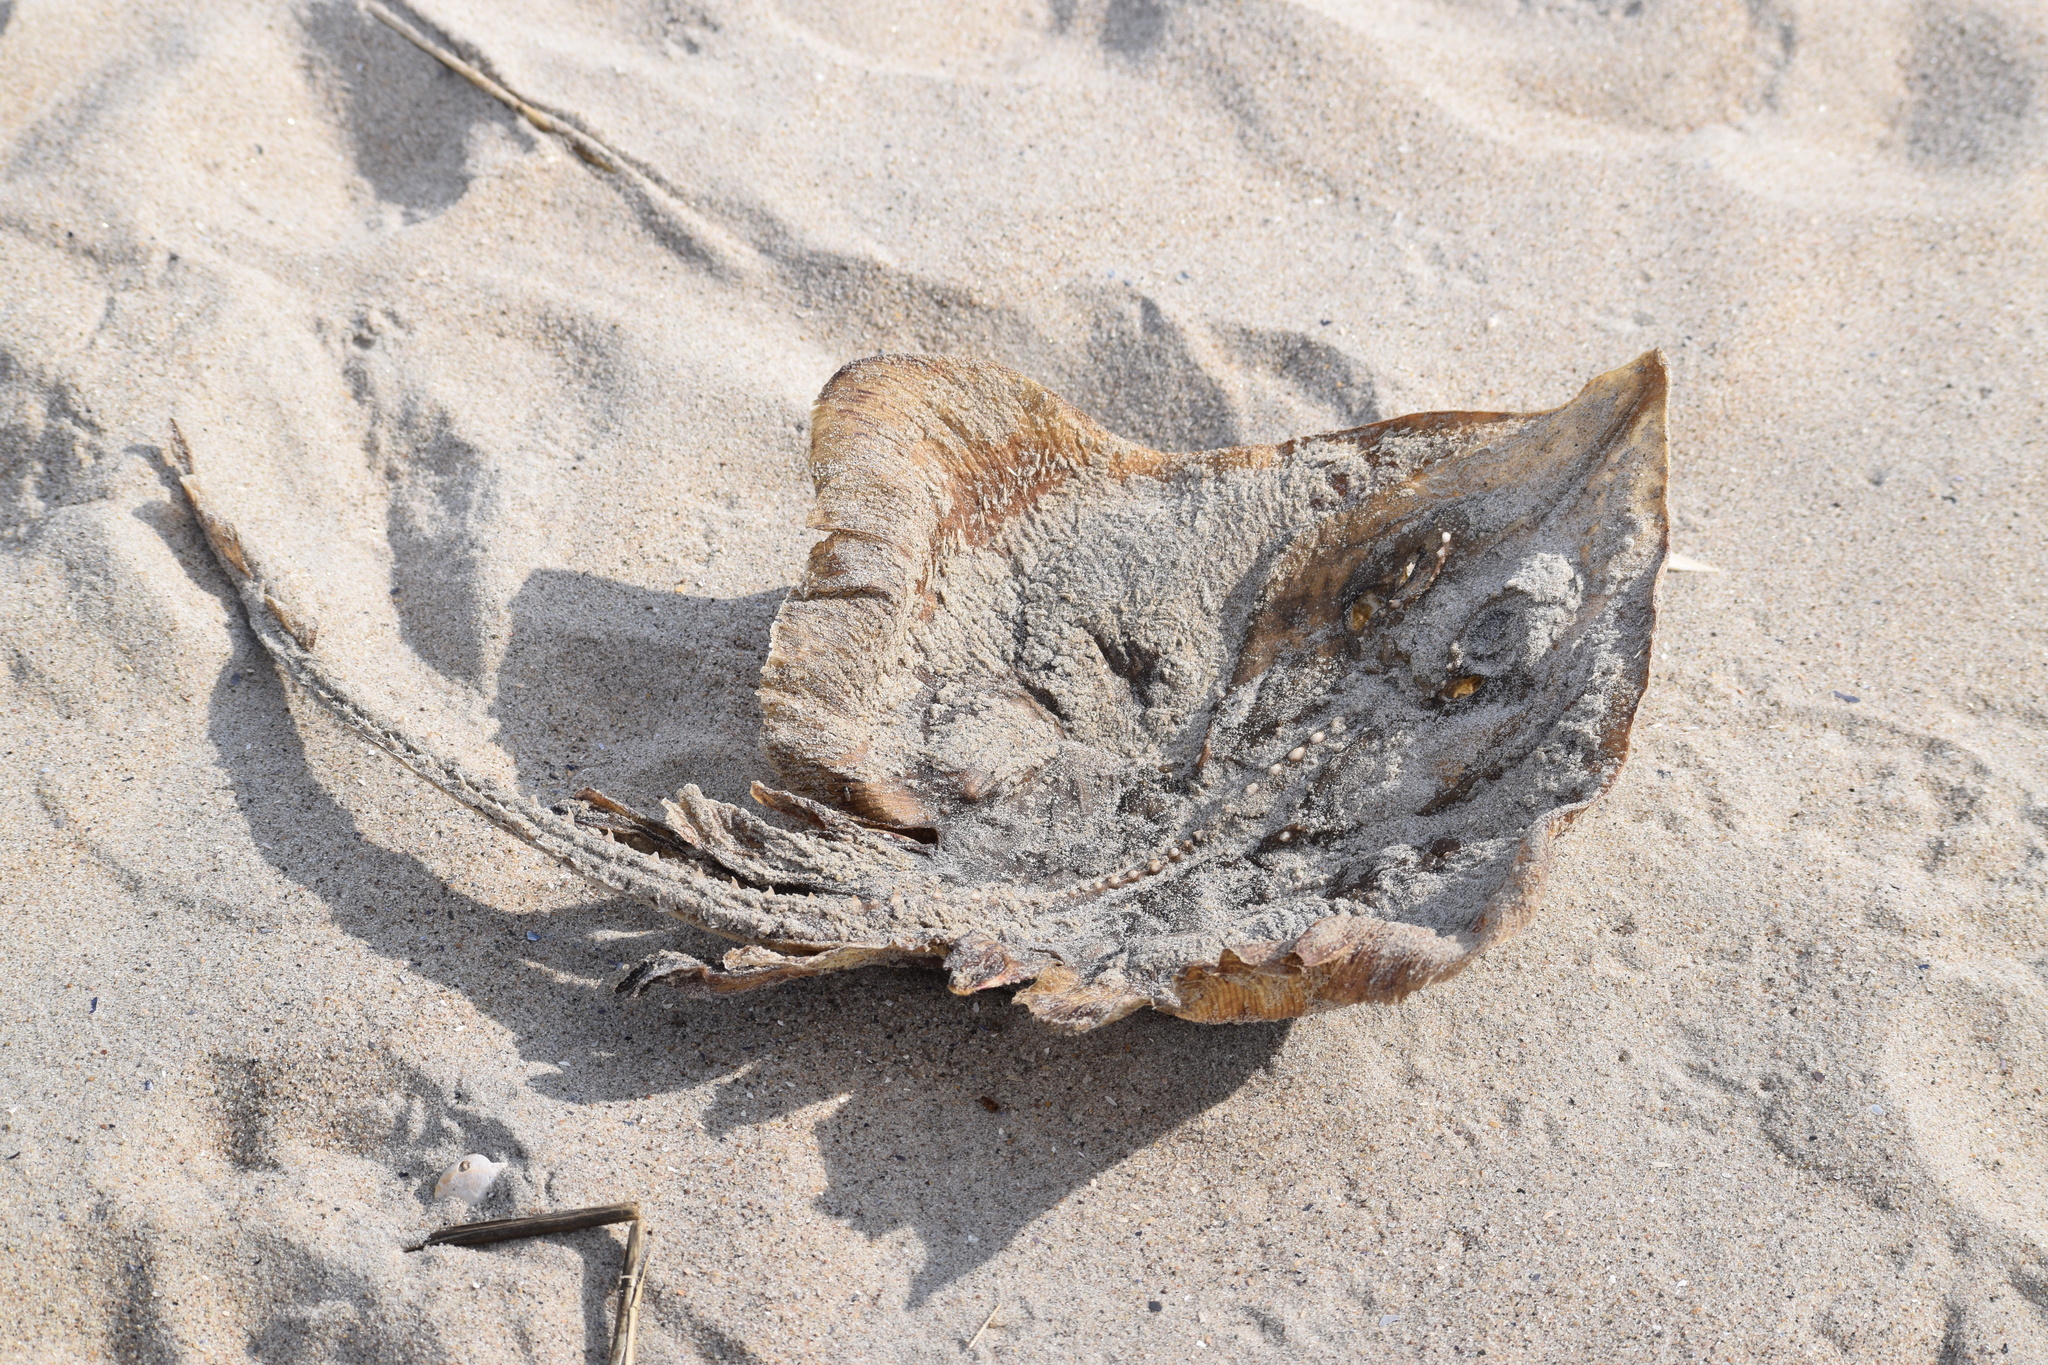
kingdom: Animalia
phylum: Chordata
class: Elasmobranchii
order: Rajiformes
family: Rajidae
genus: Raja
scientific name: Raja eglanteria
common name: Clearnose skate
